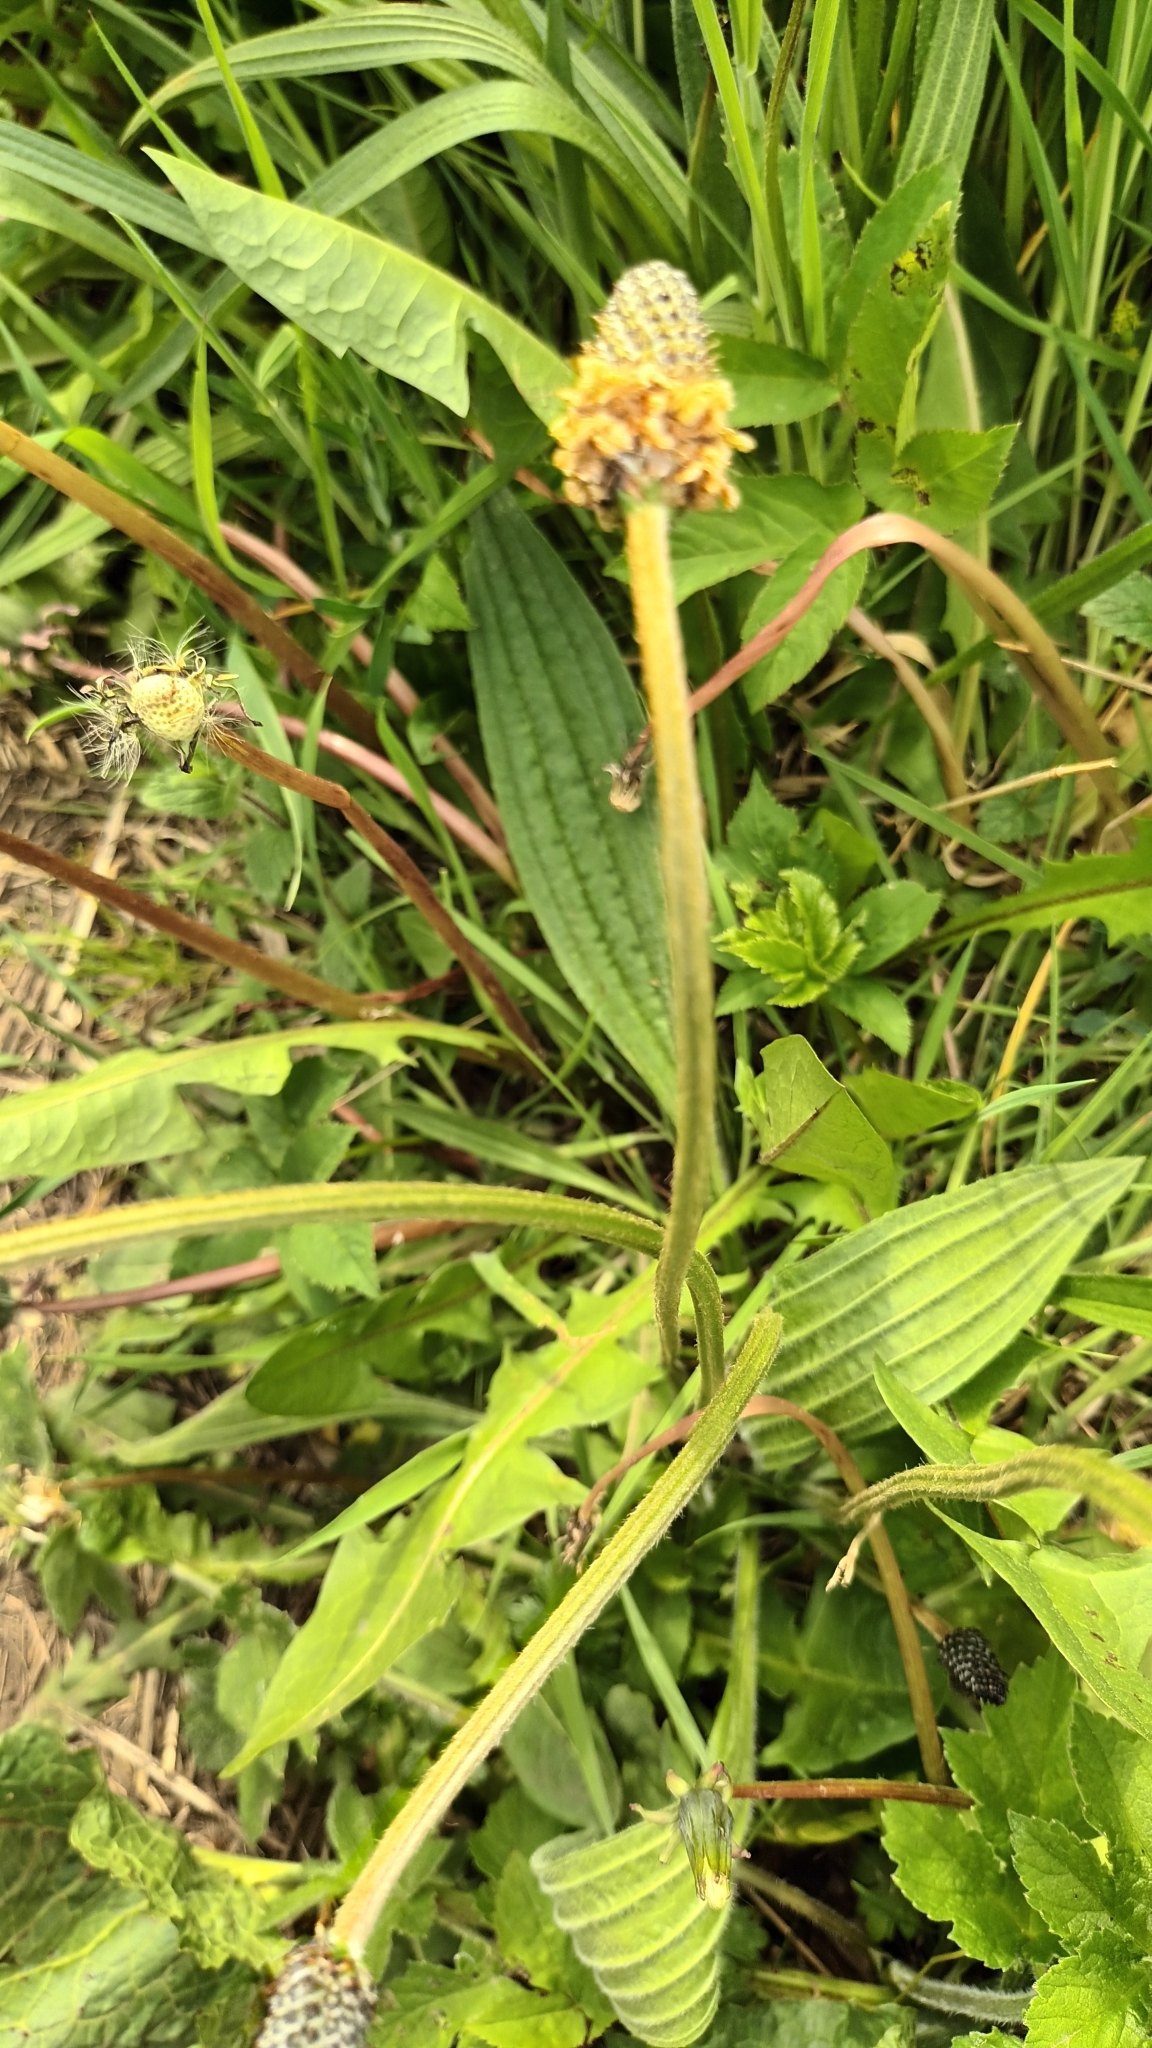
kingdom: Plantae
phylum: Tracheophyta
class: Magnoliopsida
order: Lamiales
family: Plantaginaceae
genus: Plantago
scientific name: Plantago lanceolata
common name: Ribwort plantain
